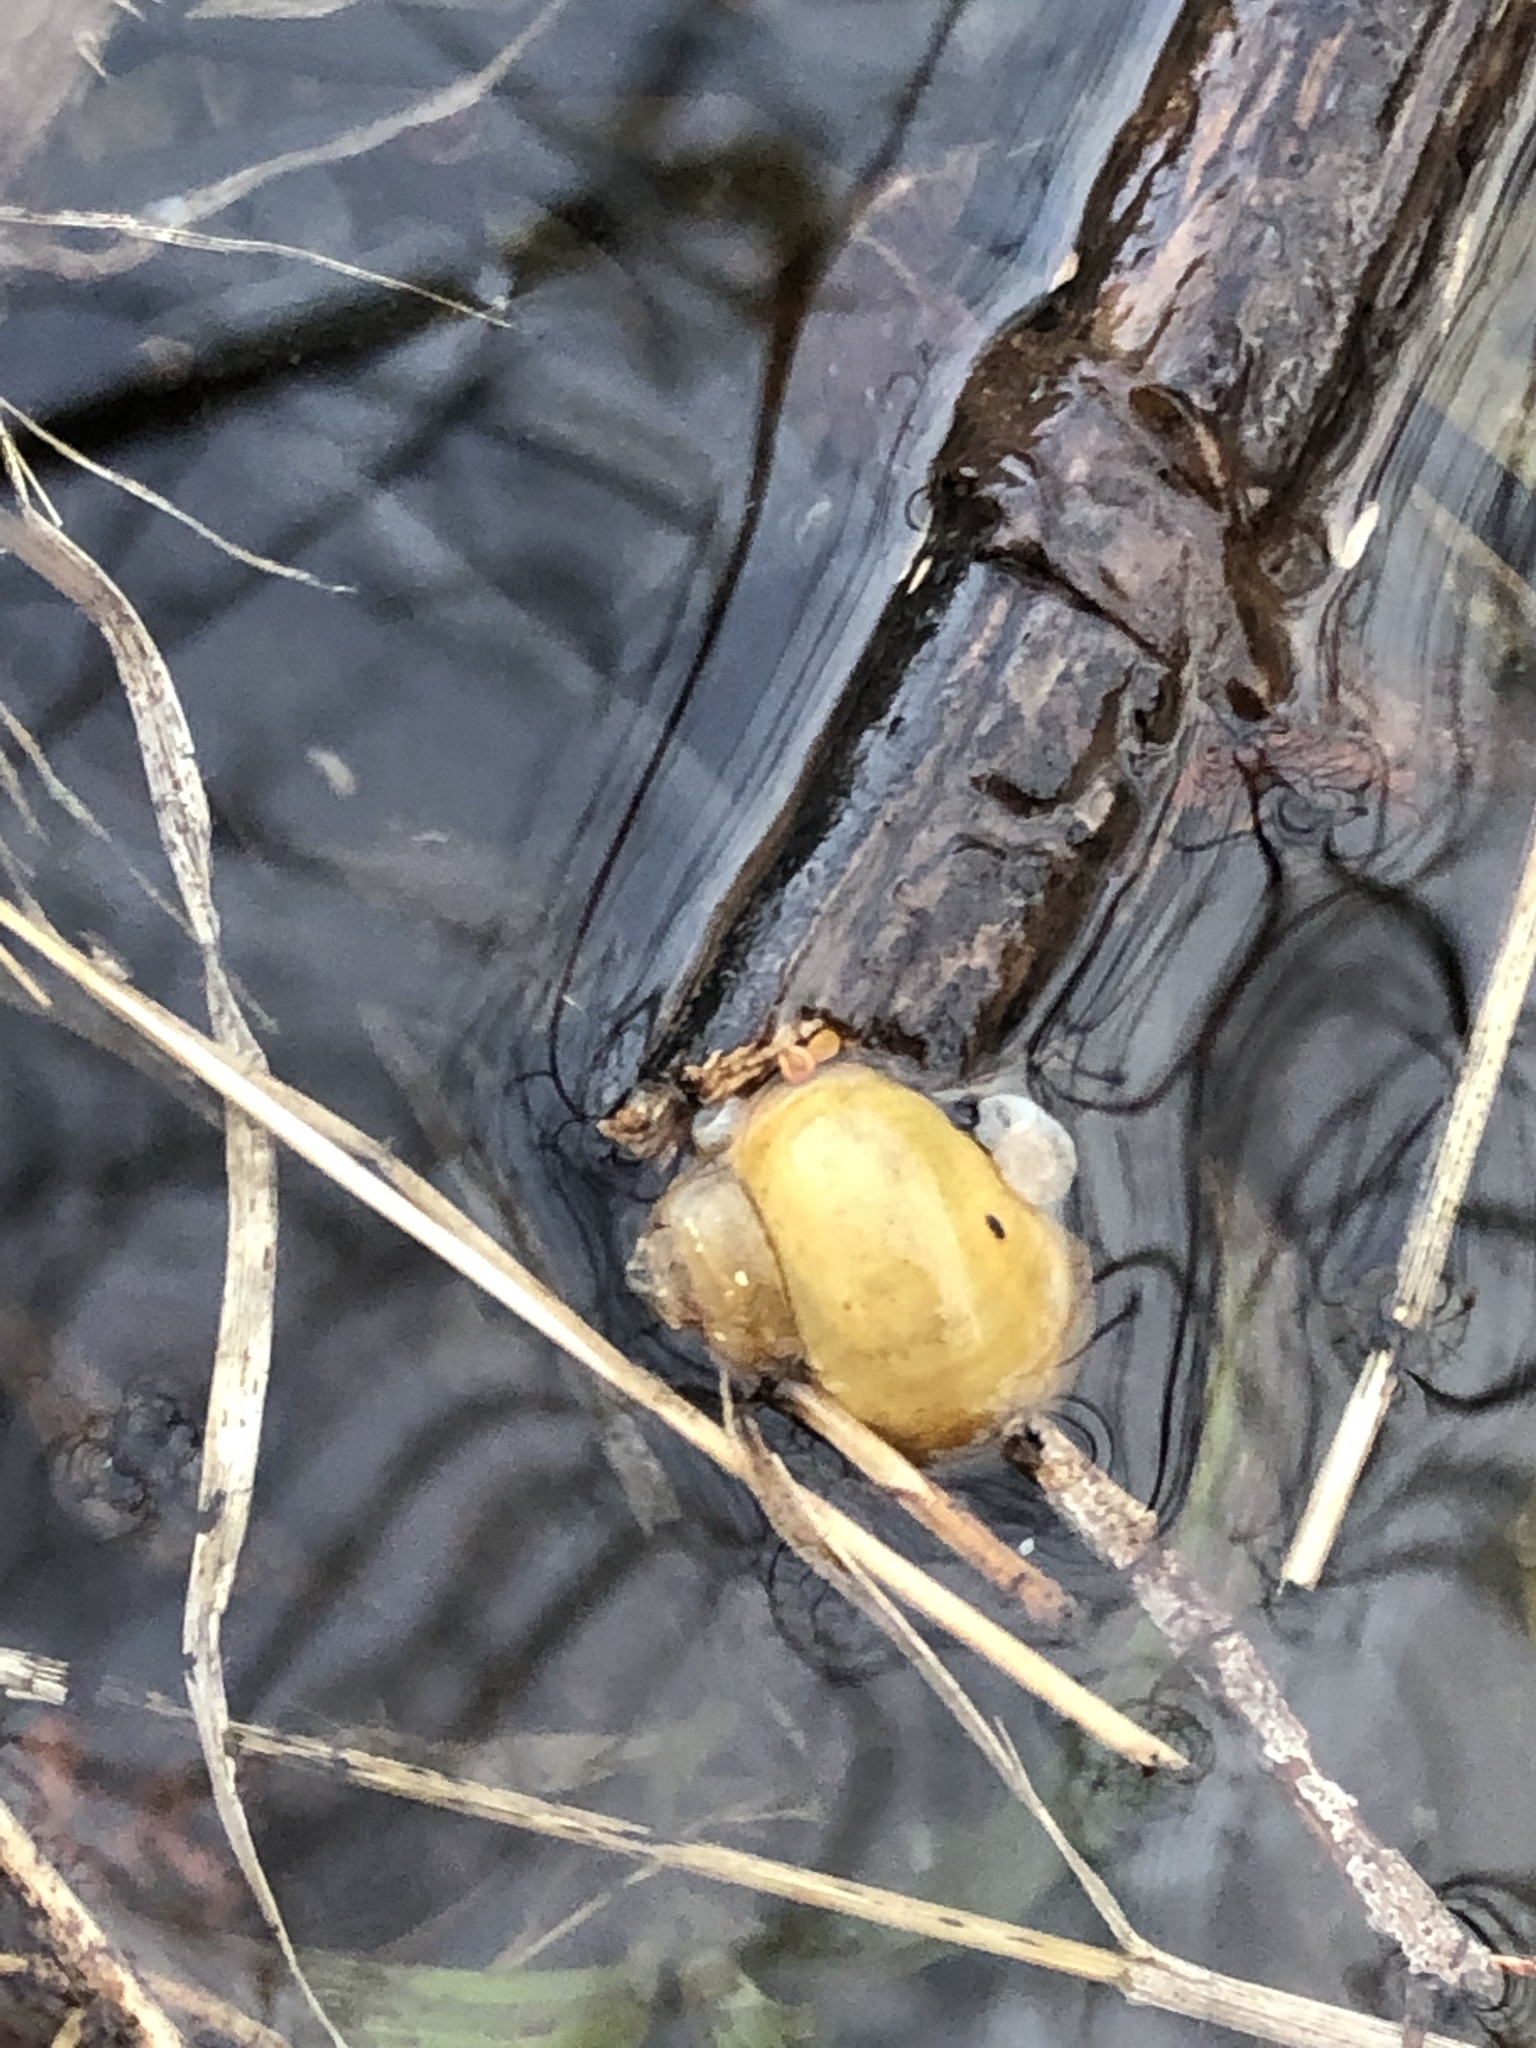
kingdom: Animalia
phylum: Mollusca
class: Gastropoda
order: Architaenioglossa
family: Viviparidae
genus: Cipangopaludina
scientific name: Cipangopaludina chinensis
